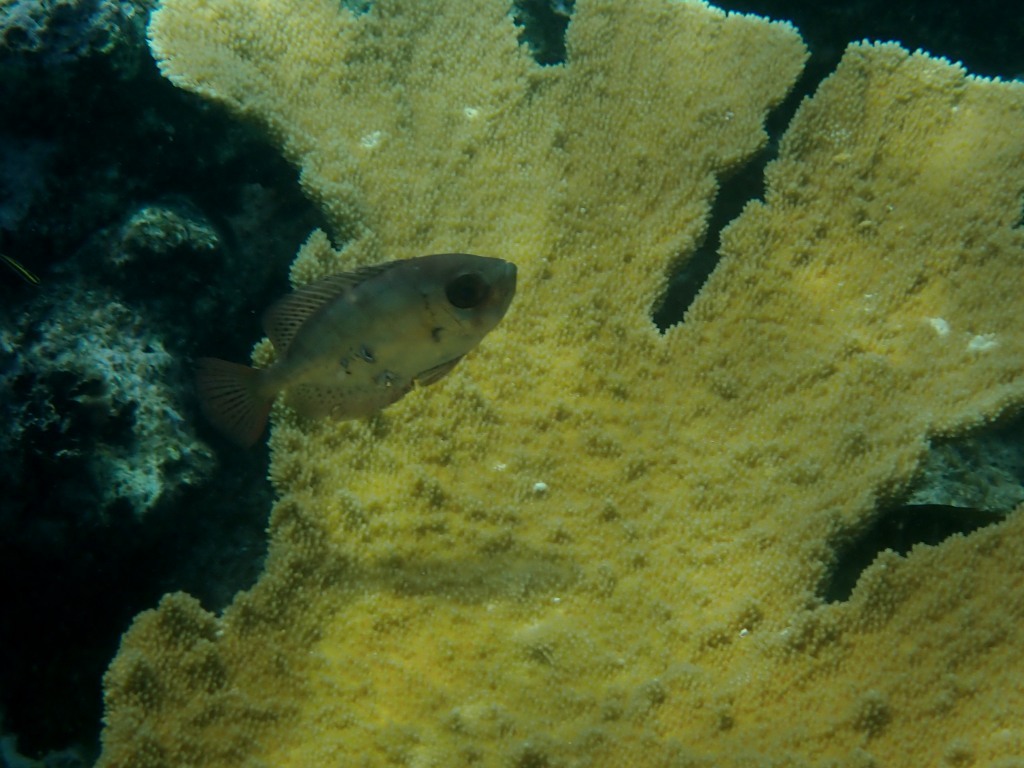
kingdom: Animalia
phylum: Chordata
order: Perciformes
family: Priacanthidae
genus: Heteropriacanthus
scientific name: Heteropriacanthus cruentatus
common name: Glasseye
